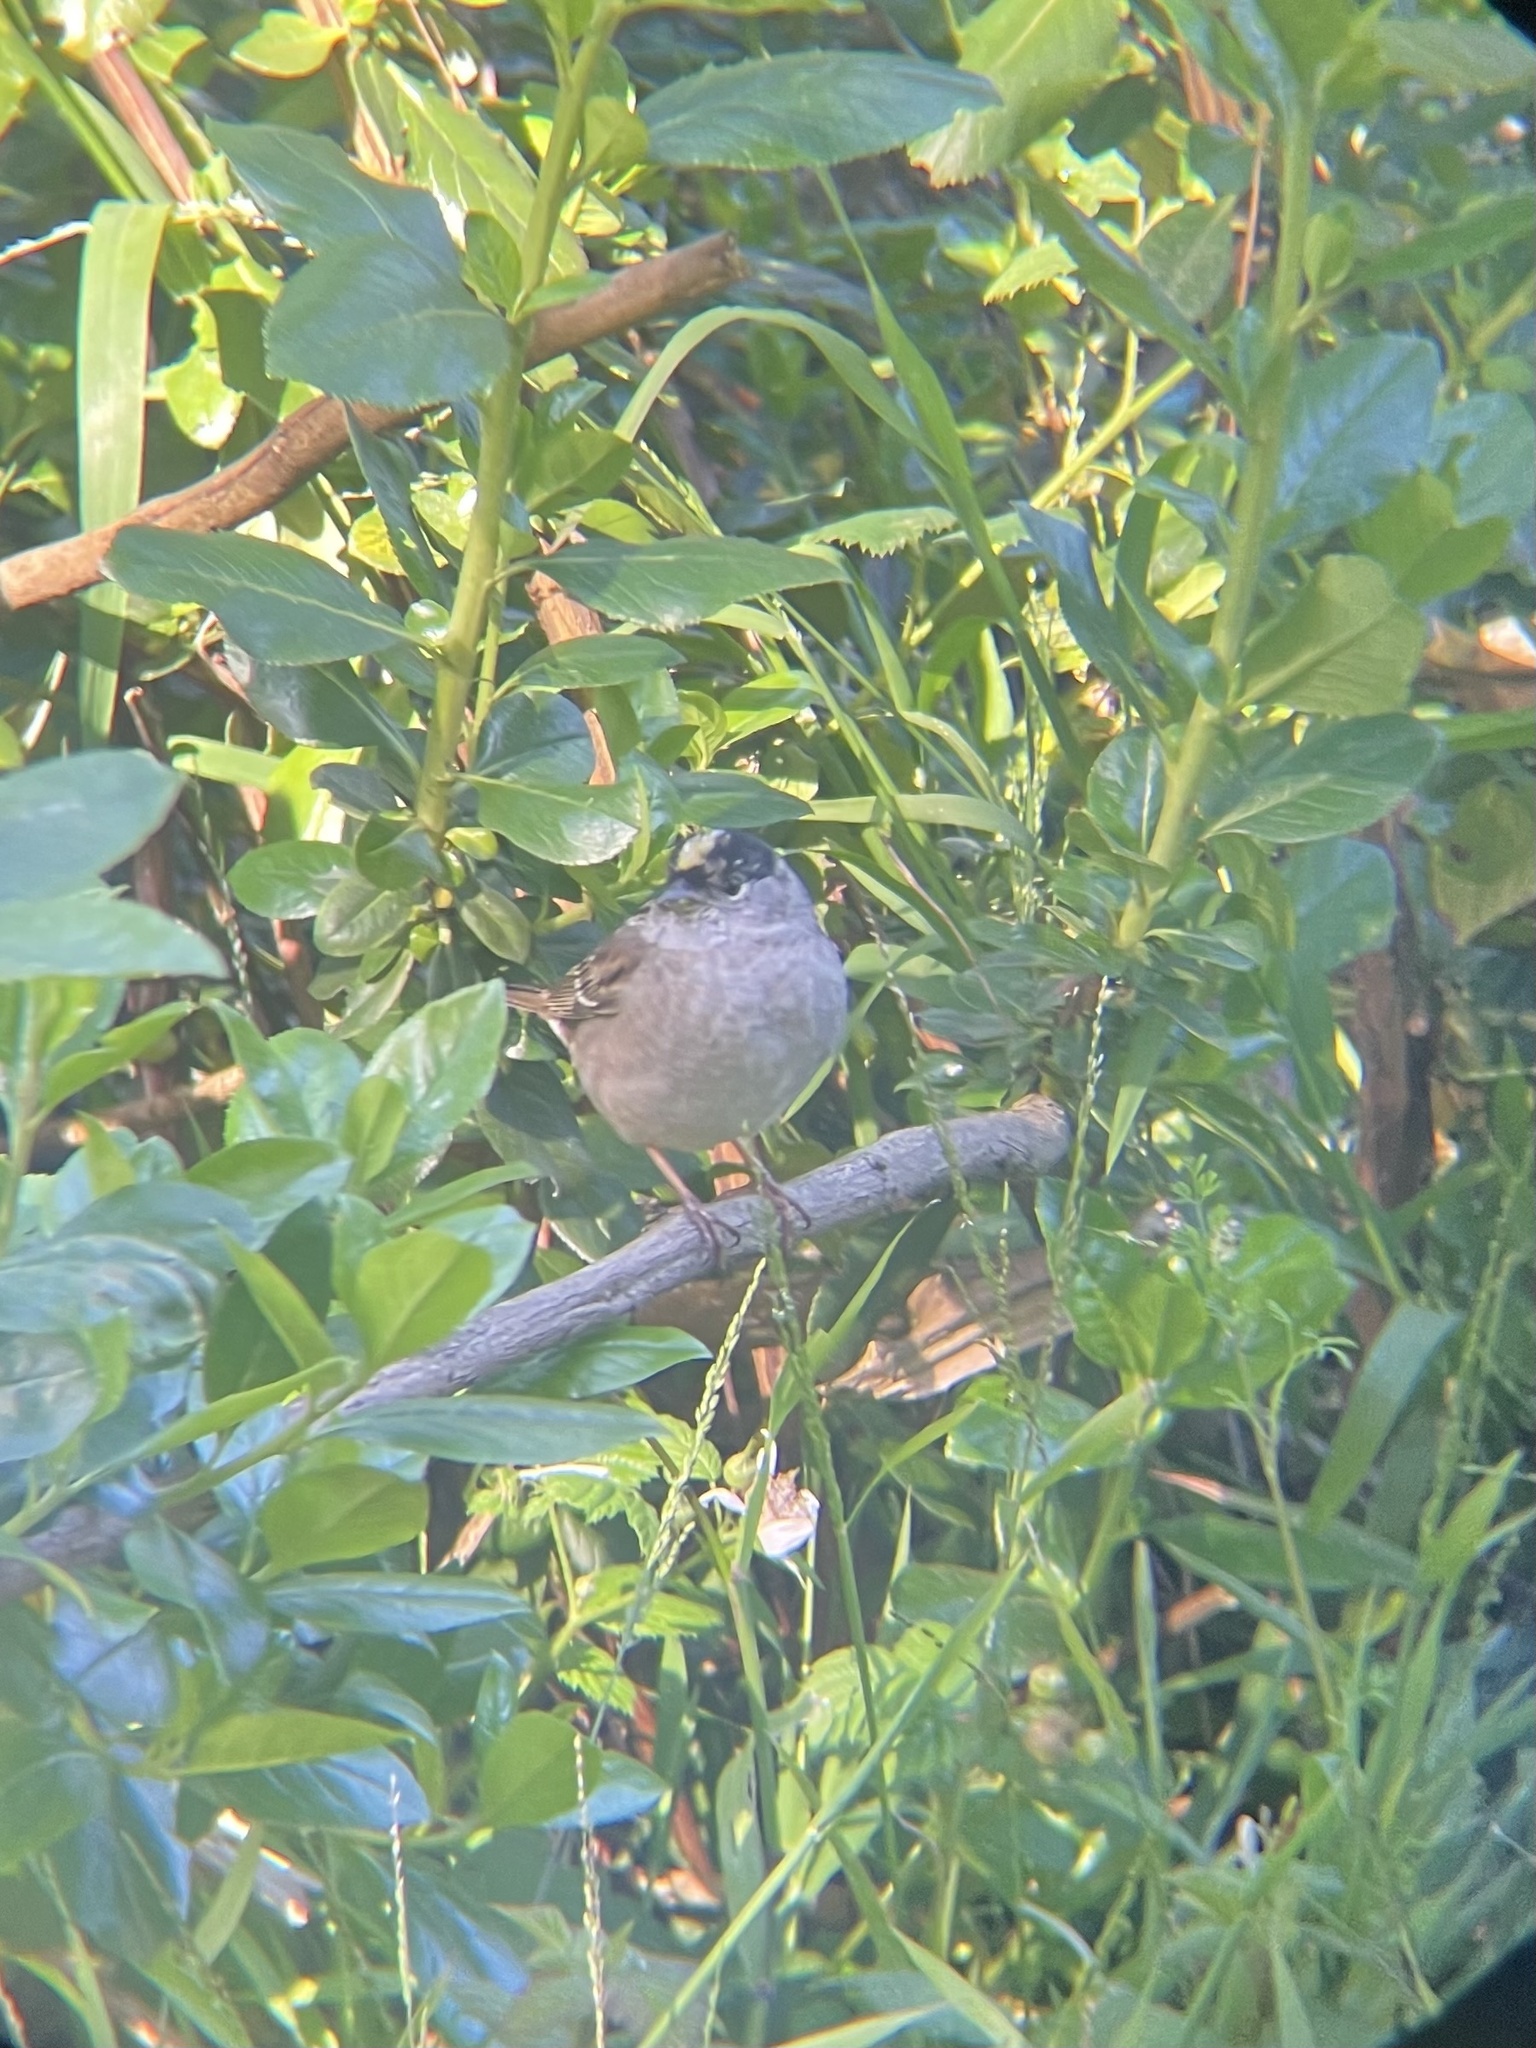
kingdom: Animalia
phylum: Chordata
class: Aves
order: Passeriformes
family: Passerellidae
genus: Zonotrichia
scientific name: Zonotrichia atricapilla
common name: Golden-crowned sparrow
